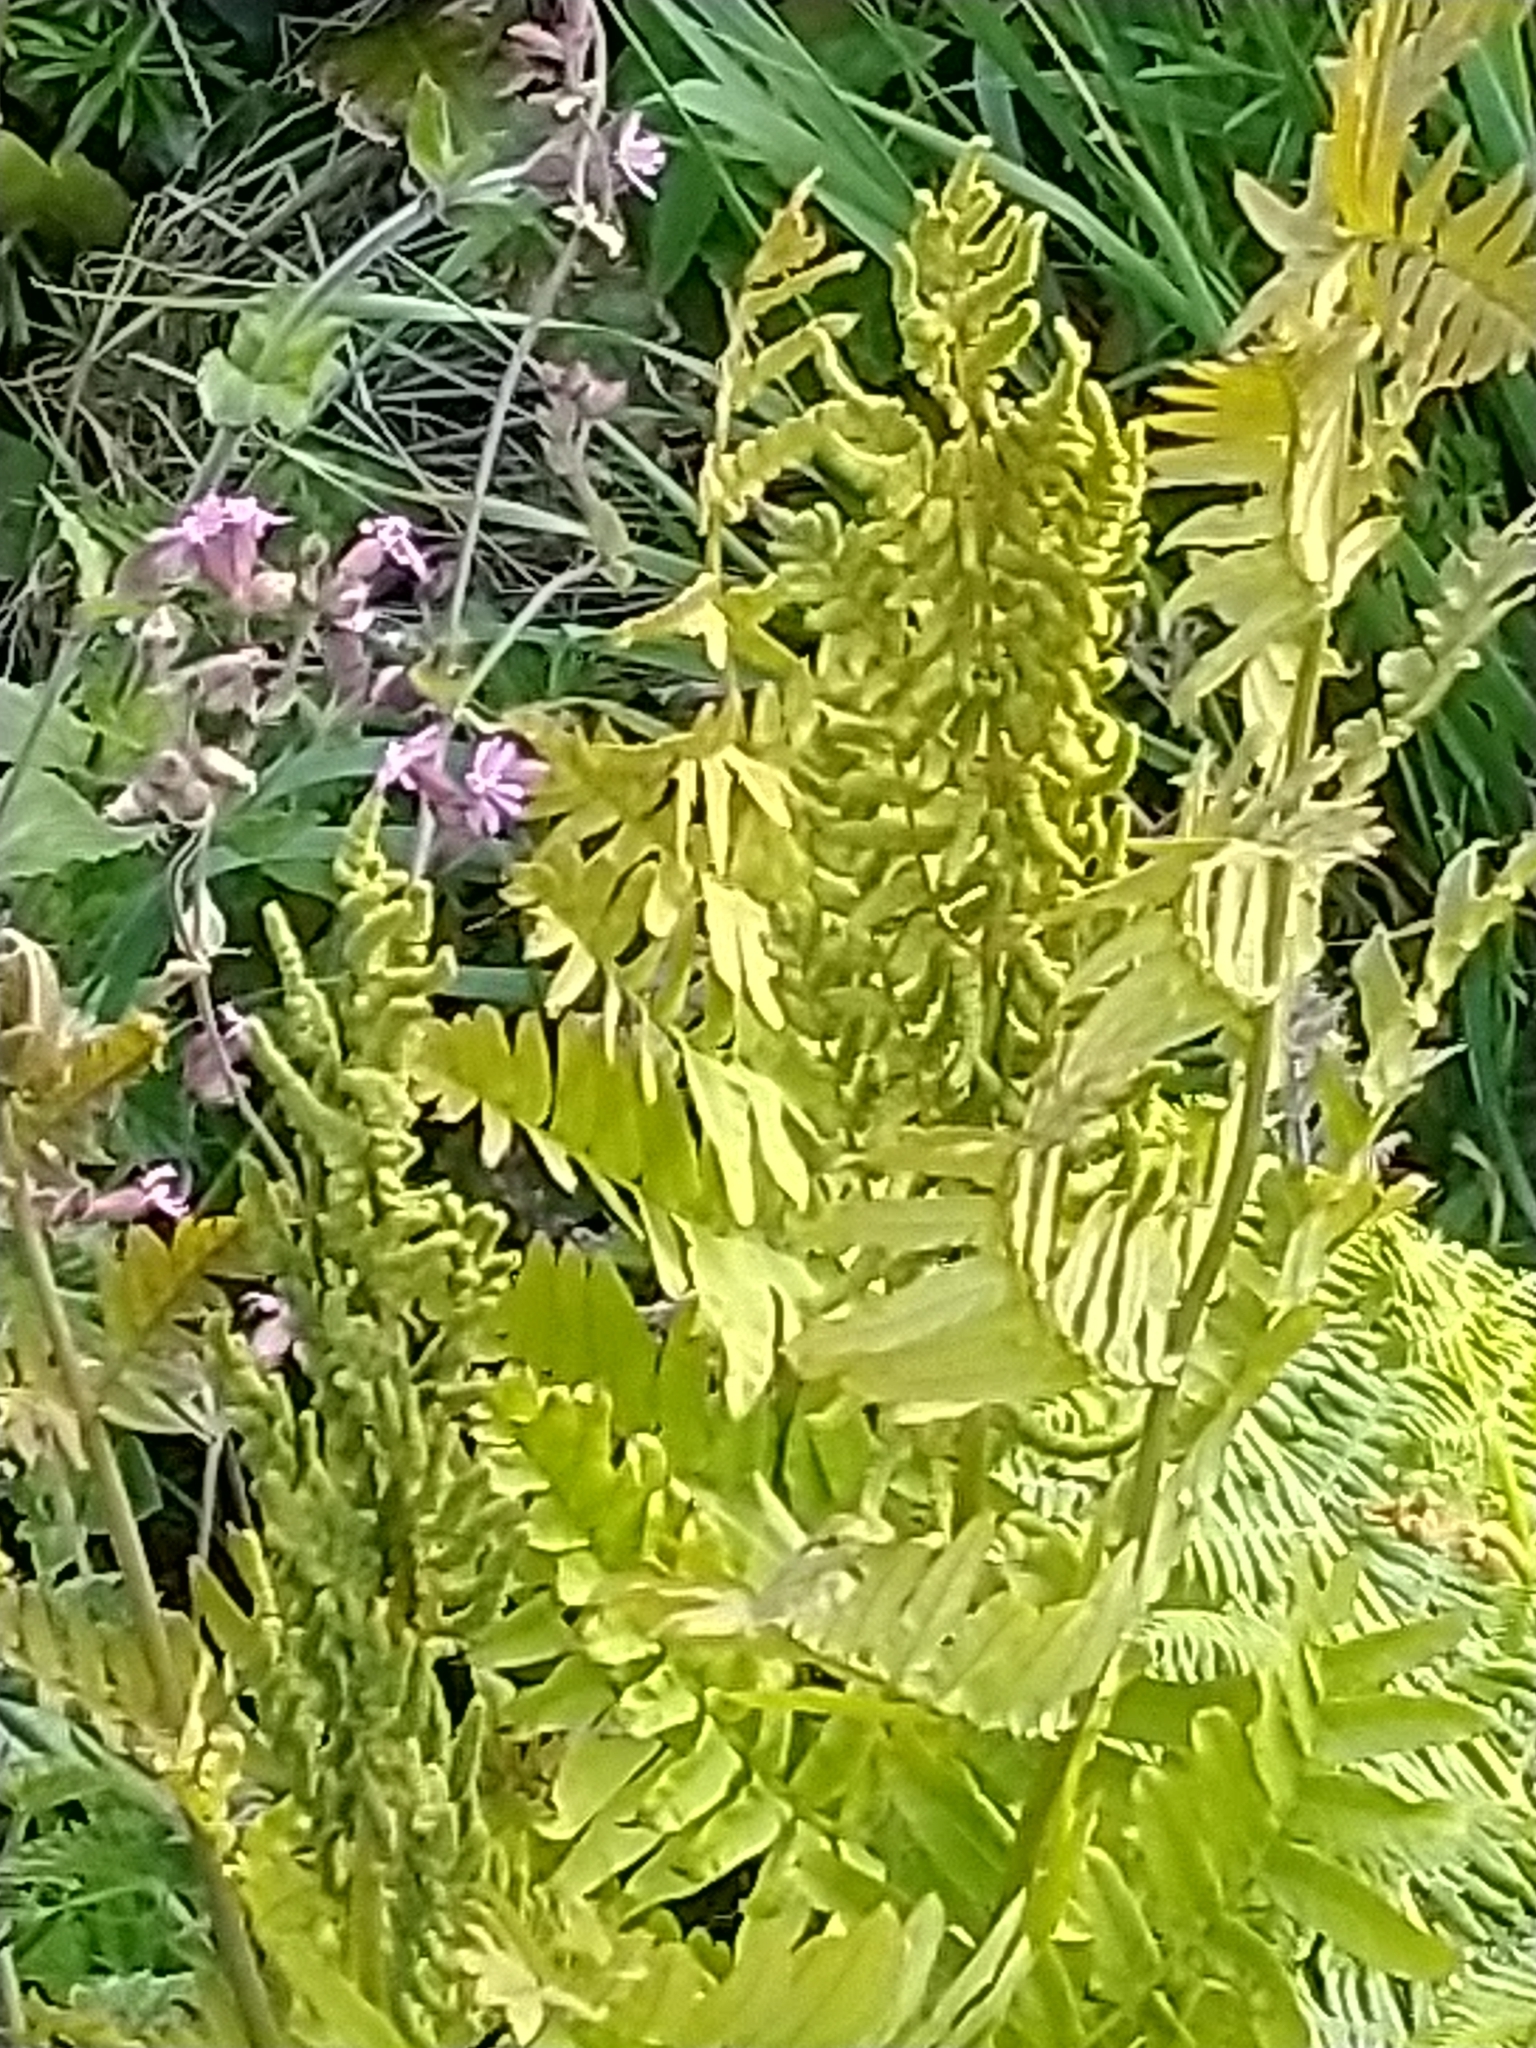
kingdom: Plantae
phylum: Tracheophyta
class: Polypodiopsida
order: Osmundales
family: Osmundaceae
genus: Osmunda
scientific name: Osmunda regalis
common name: Royal fern
